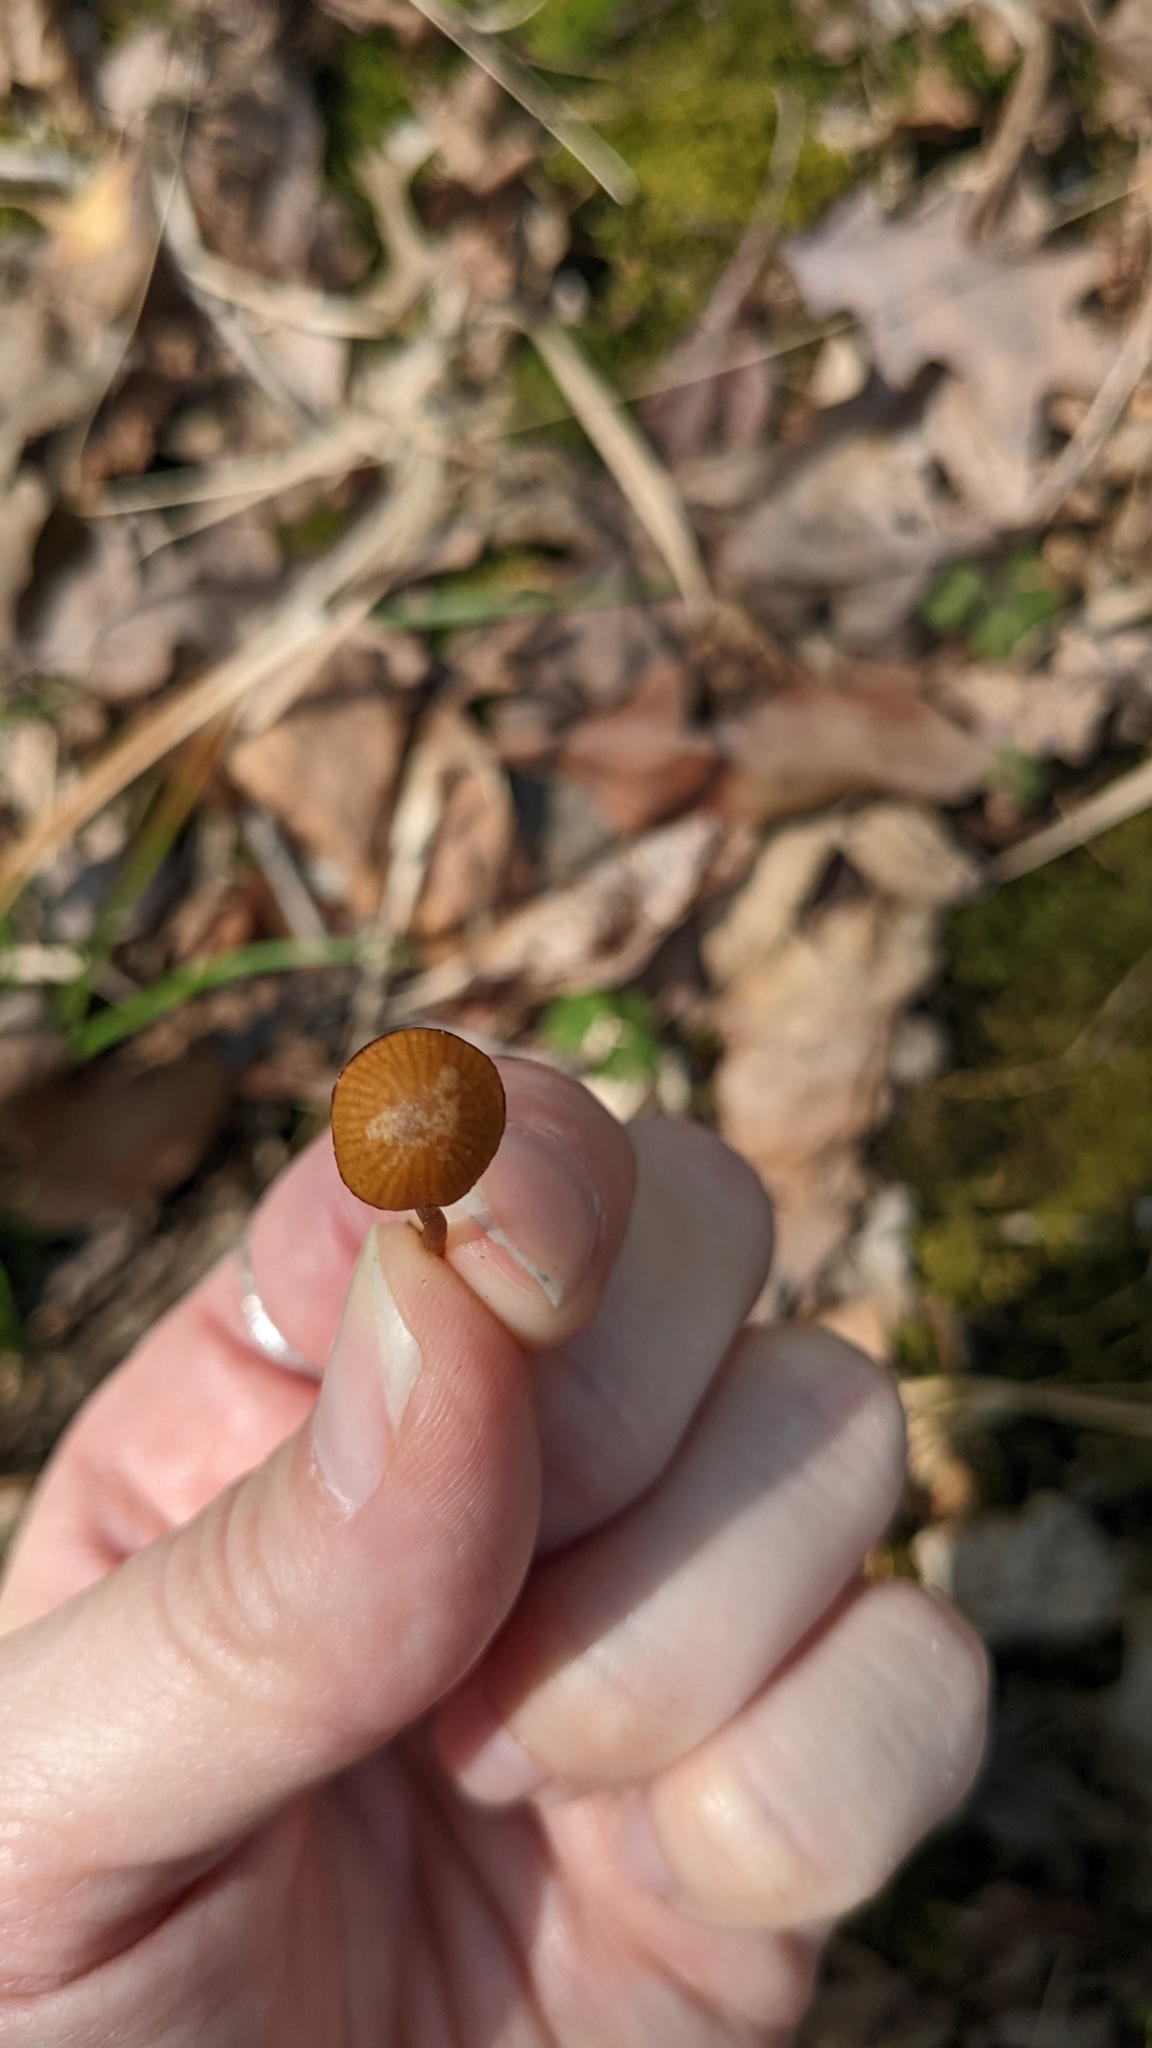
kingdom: Fungi
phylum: Basidiomycota
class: Agaricomycetes
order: Agaricales
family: Hymenogastraceae
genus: Galerina
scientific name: Galerina fallax
